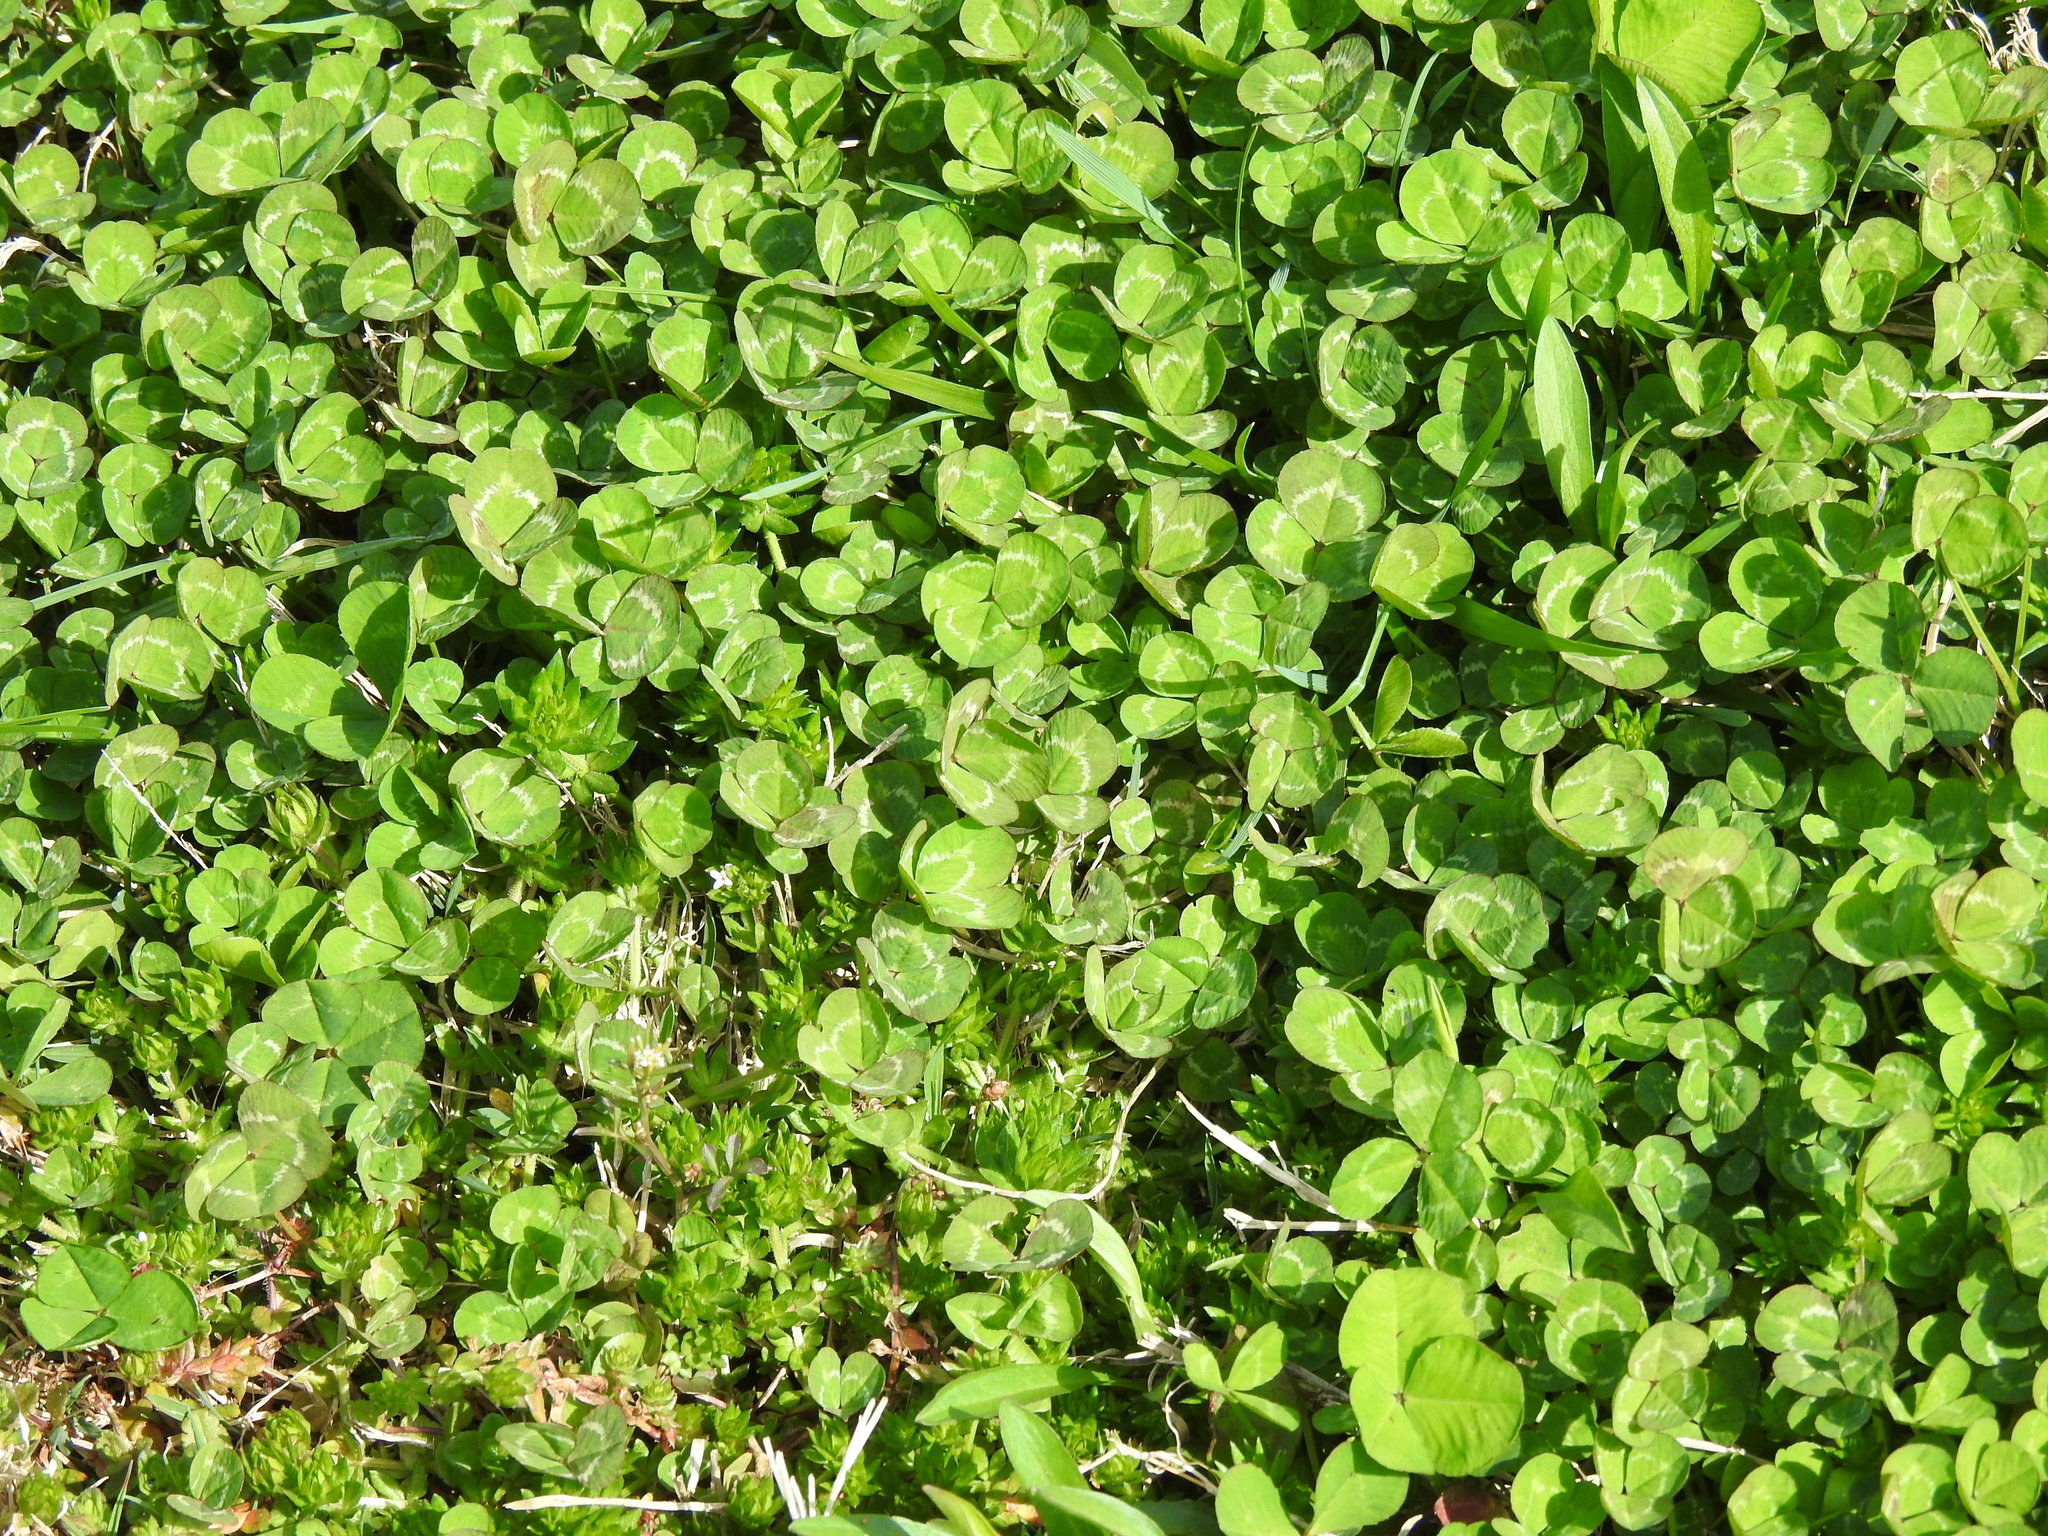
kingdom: Plantae
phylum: Tracheophyta
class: Magnoliopsida
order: Fabales
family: Fabaceae
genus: Trifolium
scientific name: Trifolium repens
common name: White clover
